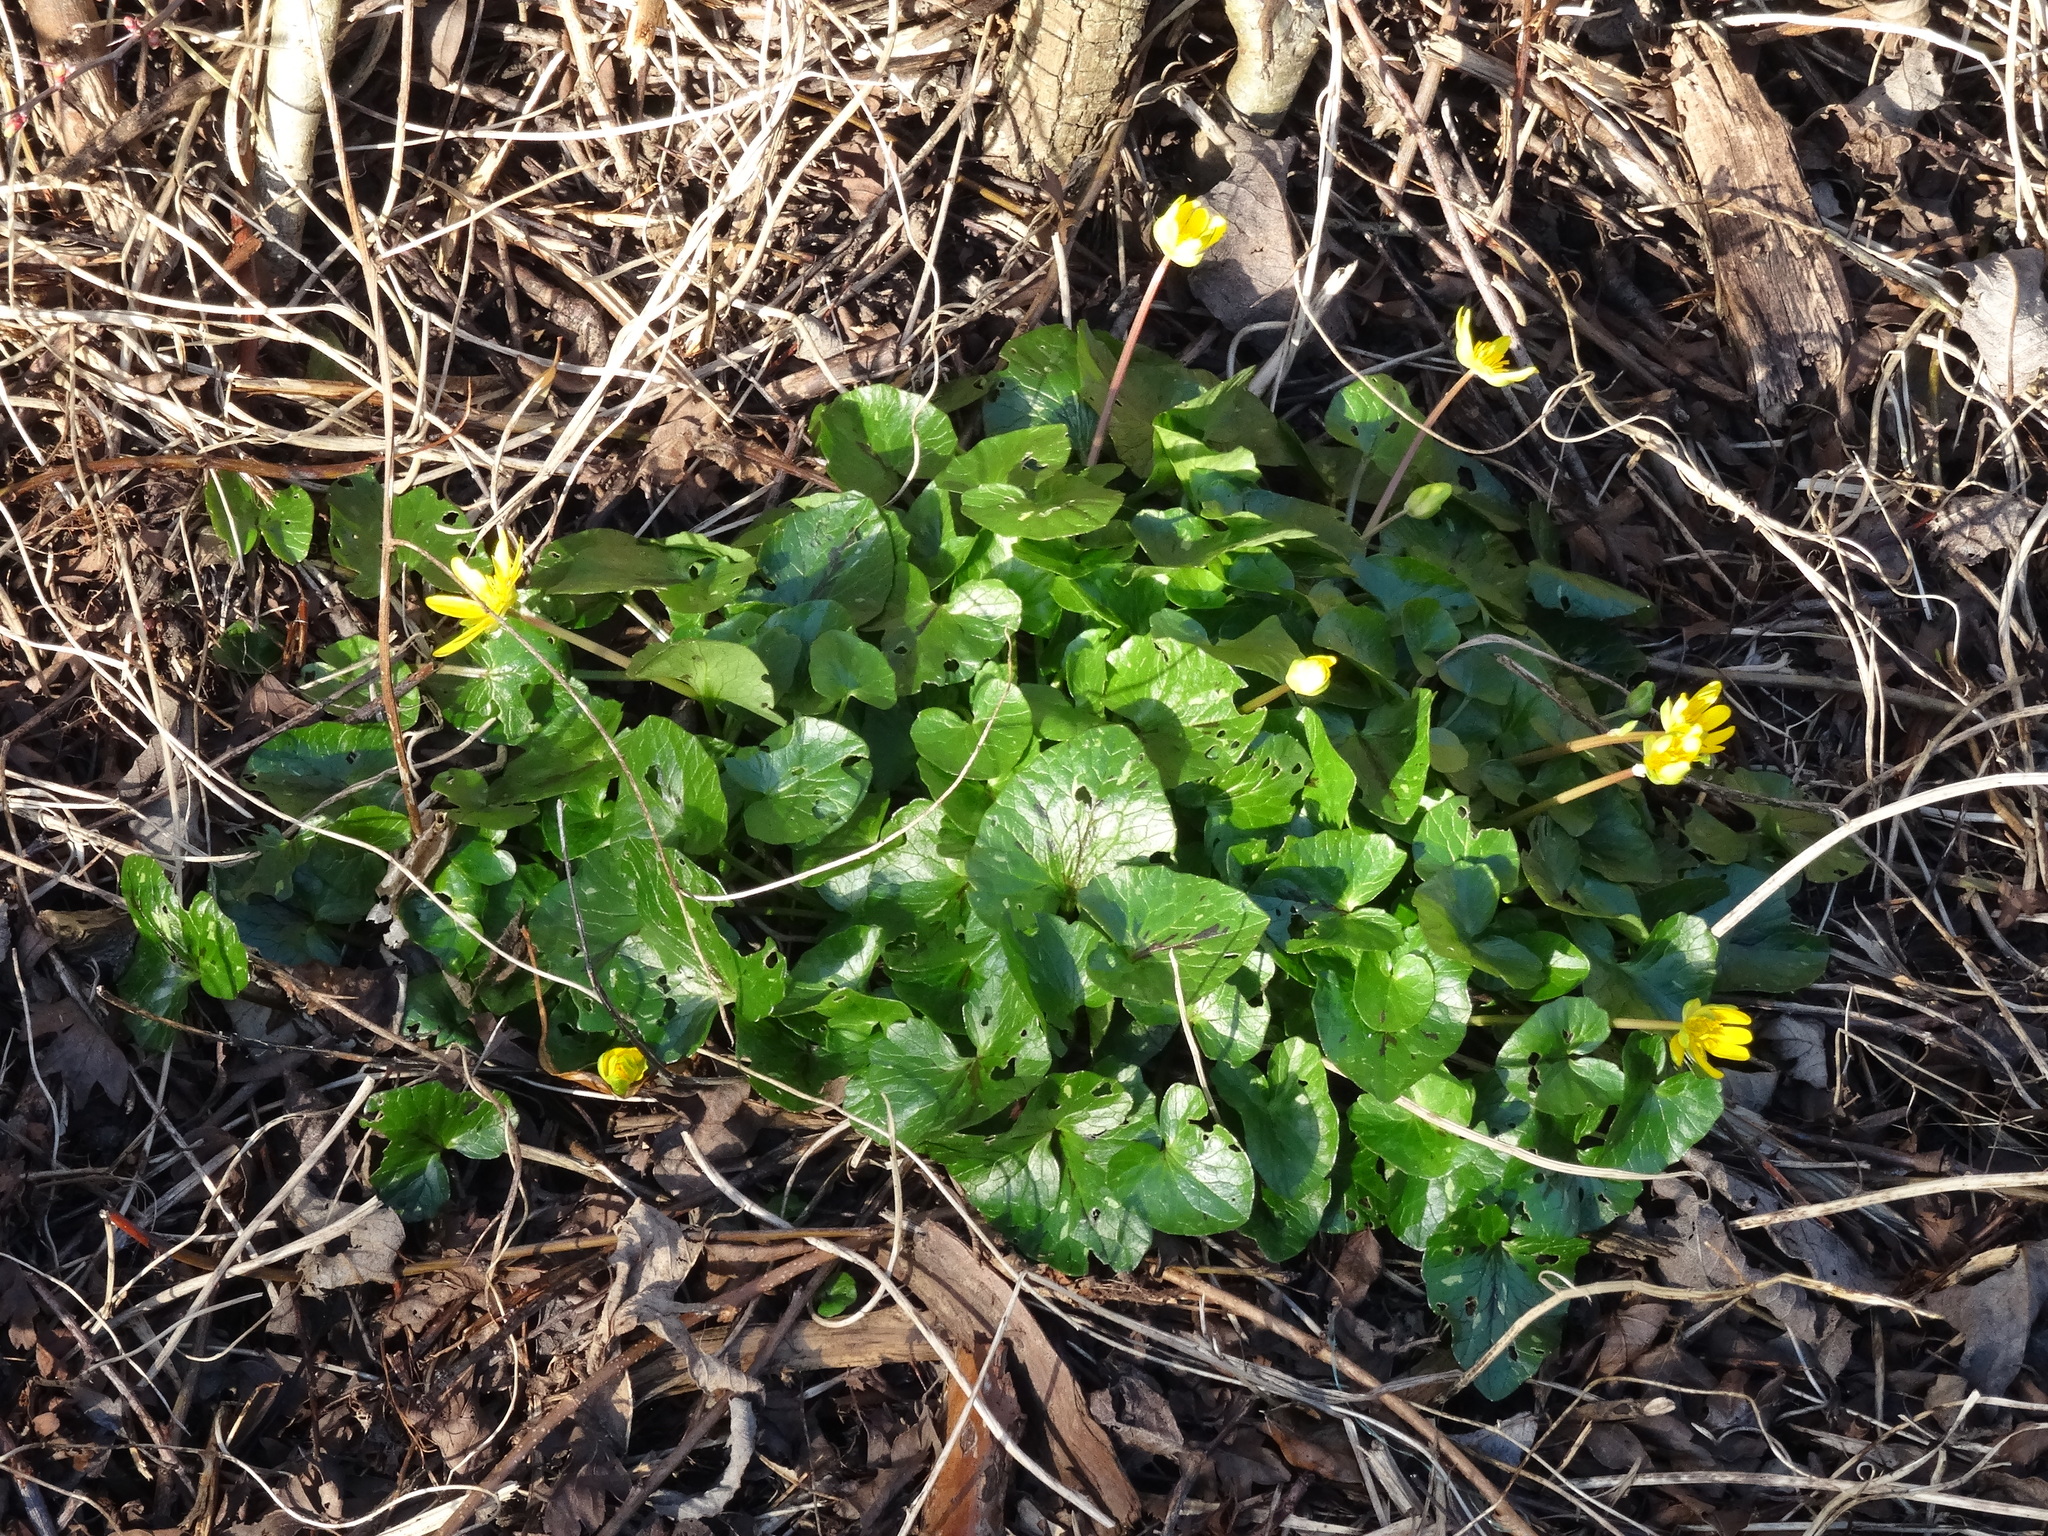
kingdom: Plantae
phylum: Tracheophyta
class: Magnoliopsida
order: Ranunculales
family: Ranunculaceae
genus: Ficaria
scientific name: Ficaria verna
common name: Lesser celandine
